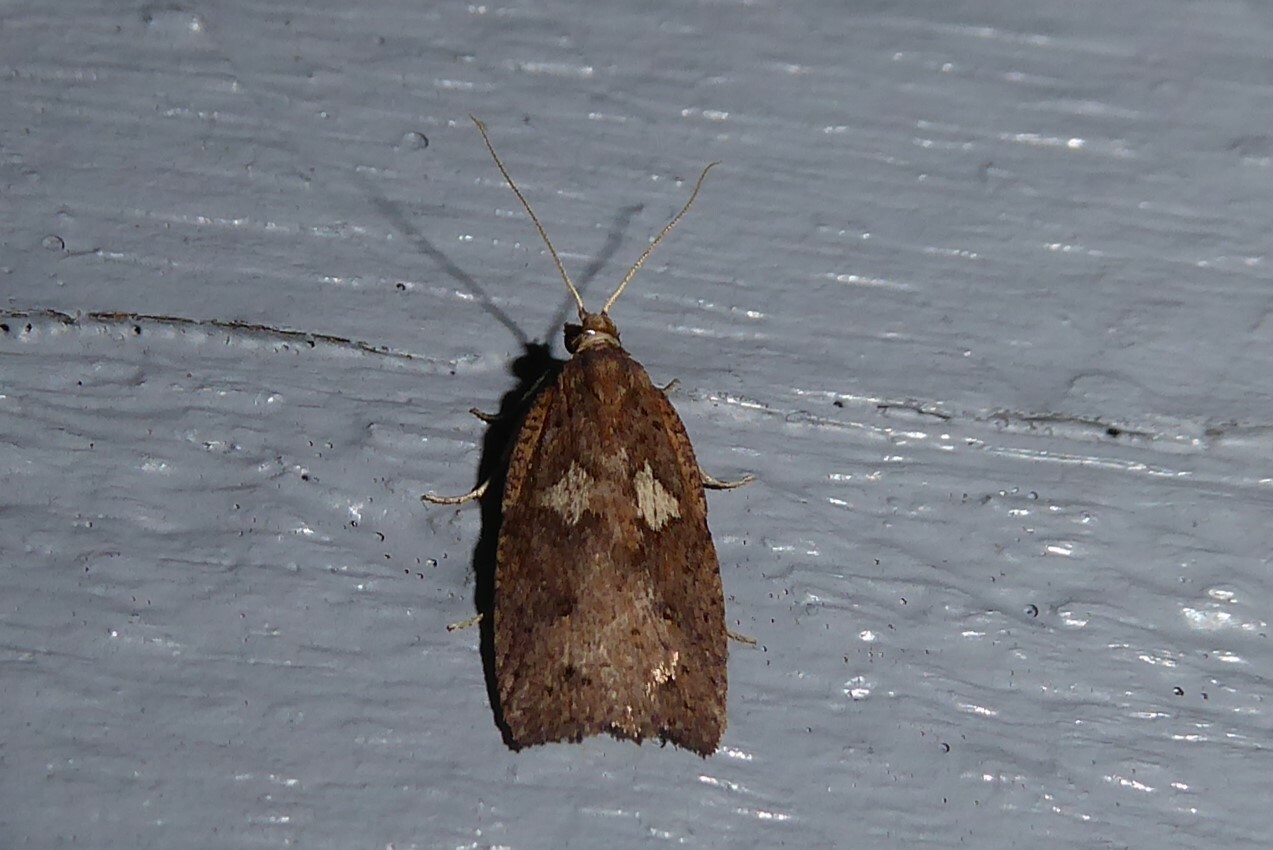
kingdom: Animalia
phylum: Arthropoda
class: Insecta
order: Lepidoptera
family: Tortricidae
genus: Planotortrix
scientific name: Planotortrix notophaea
